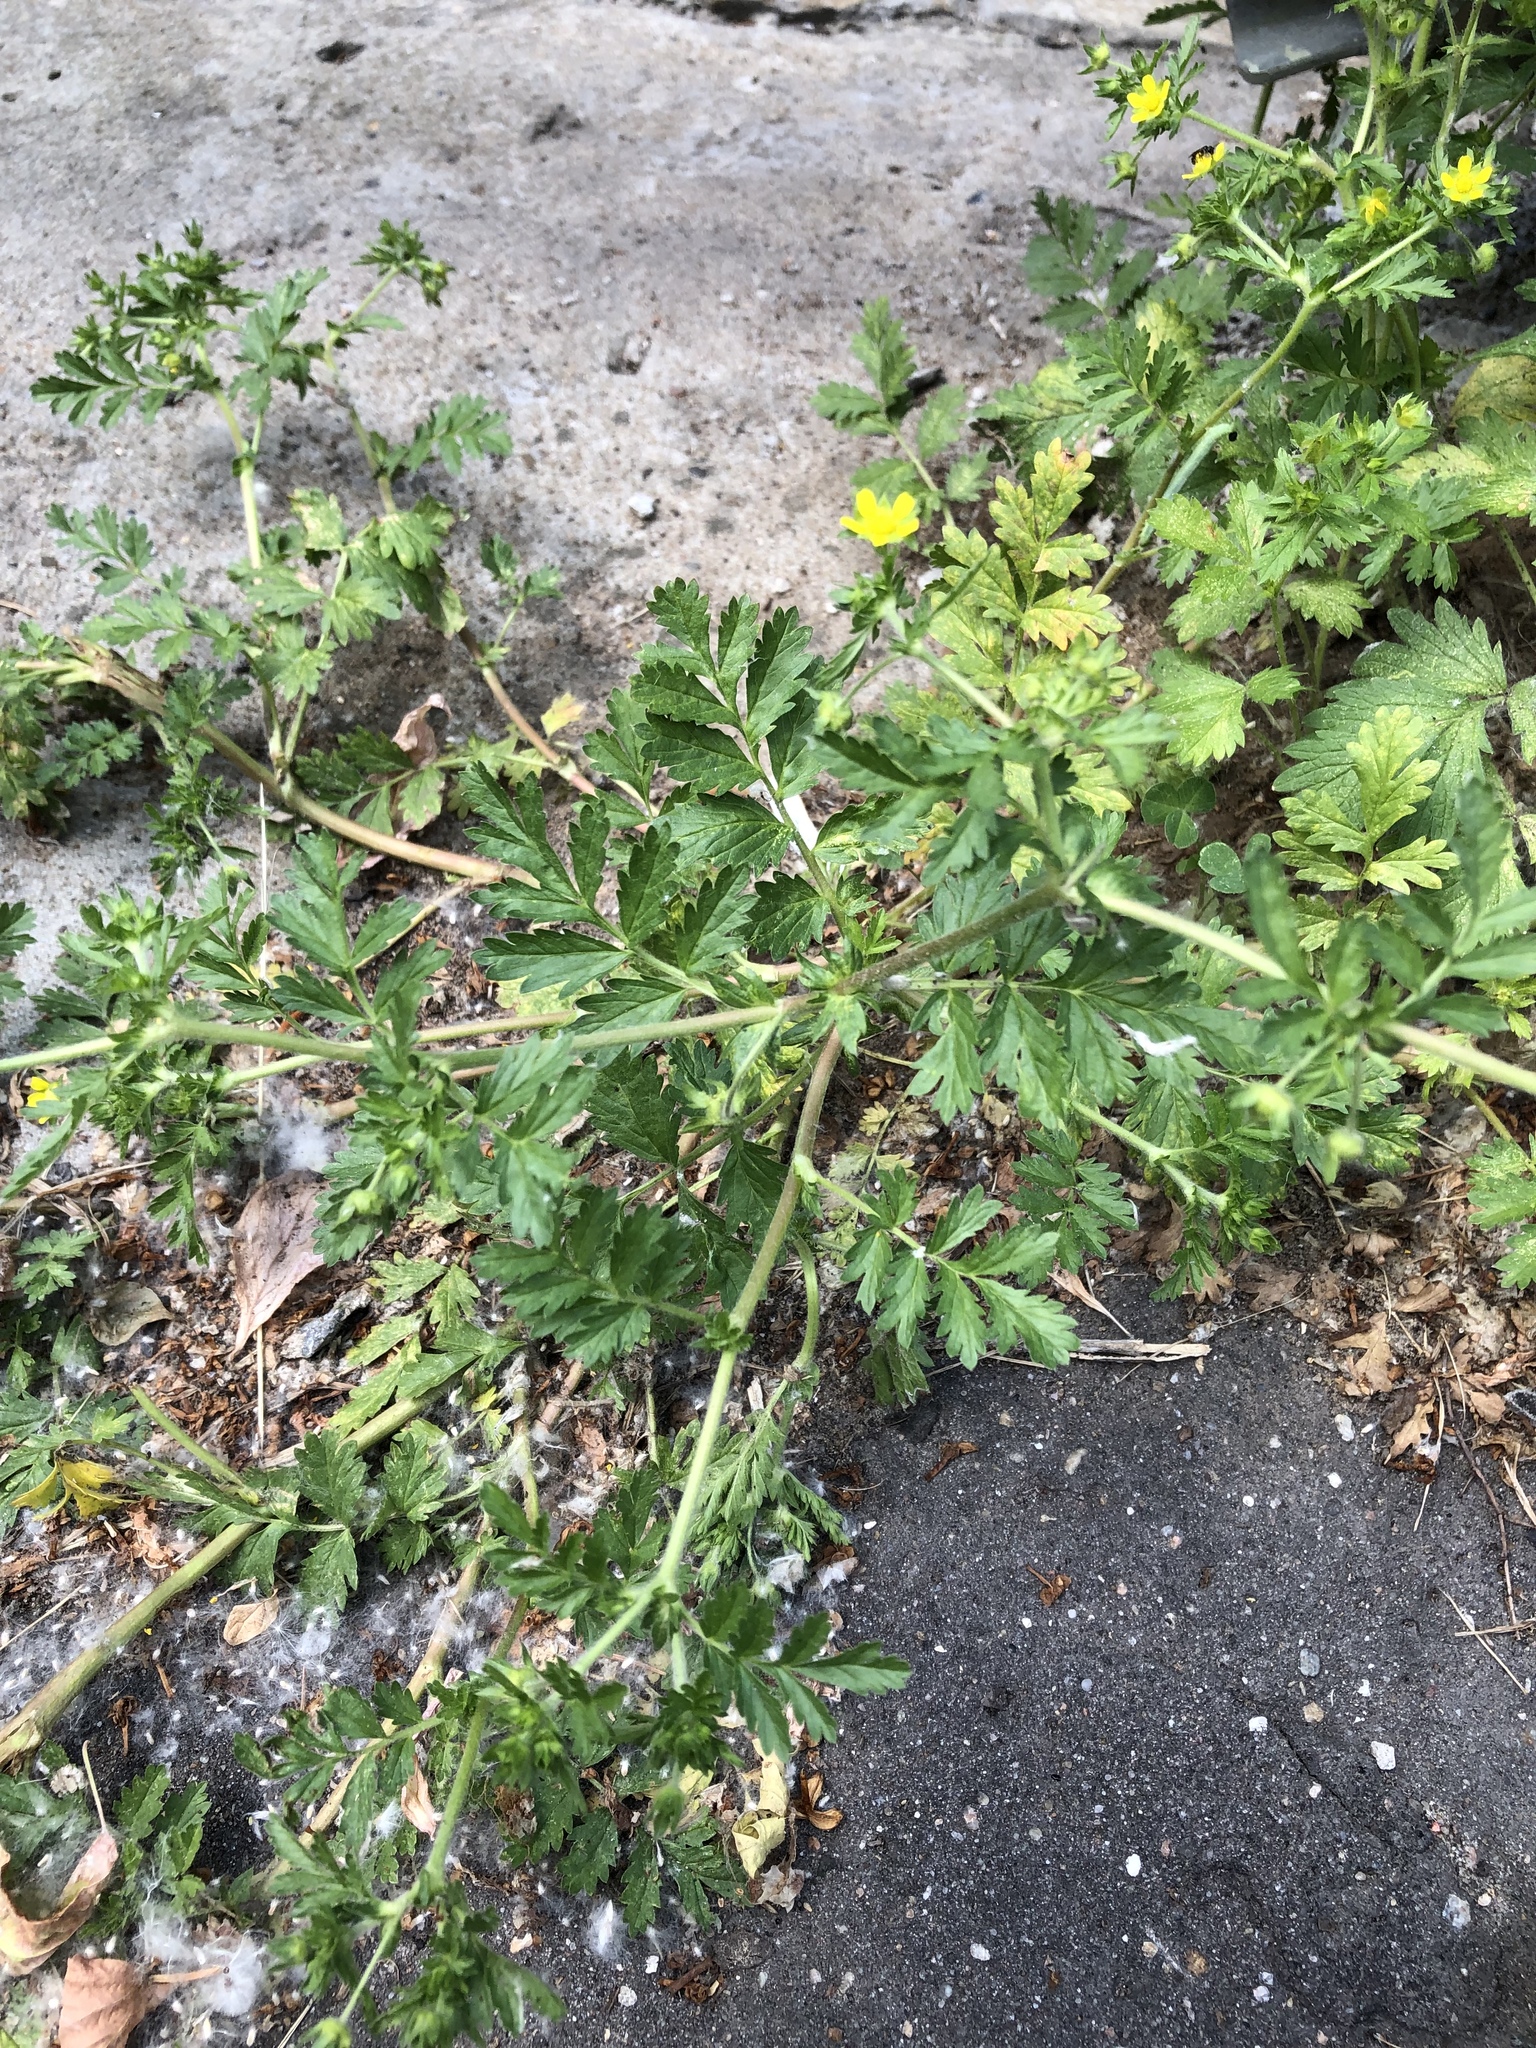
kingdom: Plantae
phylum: Tracheophyta
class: Magnoliopsida
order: Rosales
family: Rosaceae
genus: Potentilla
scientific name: Potentilla supina
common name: Prostrate cinquefoil
